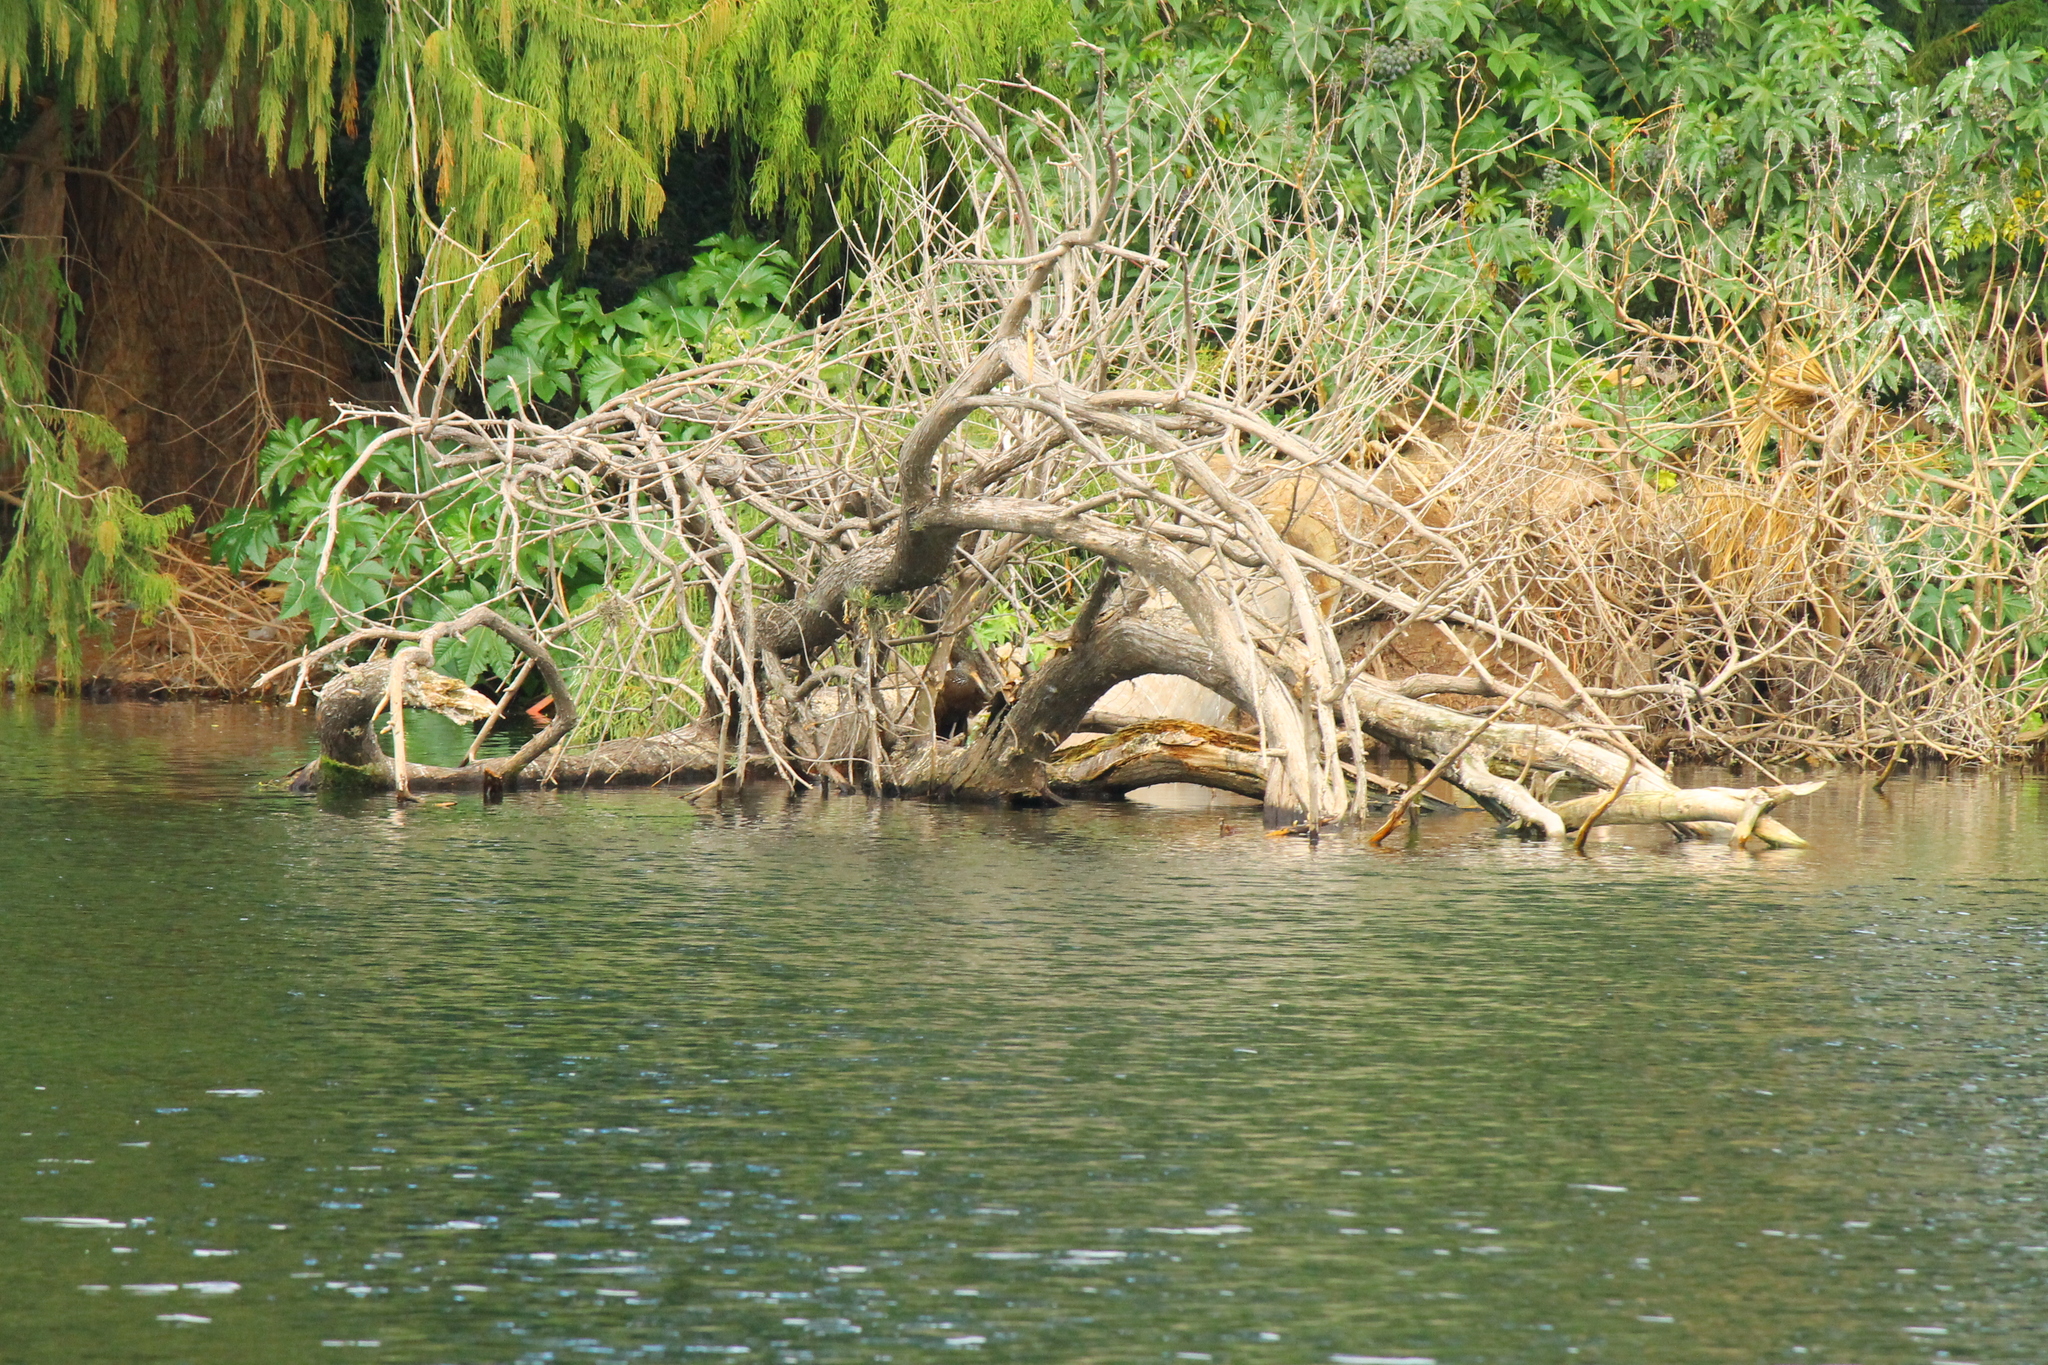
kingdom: Animalia
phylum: Chordata
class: Aves
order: Gruiformes
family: Aramidae
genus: Aramus
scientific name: Aramus guarauna
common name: Limpkin
